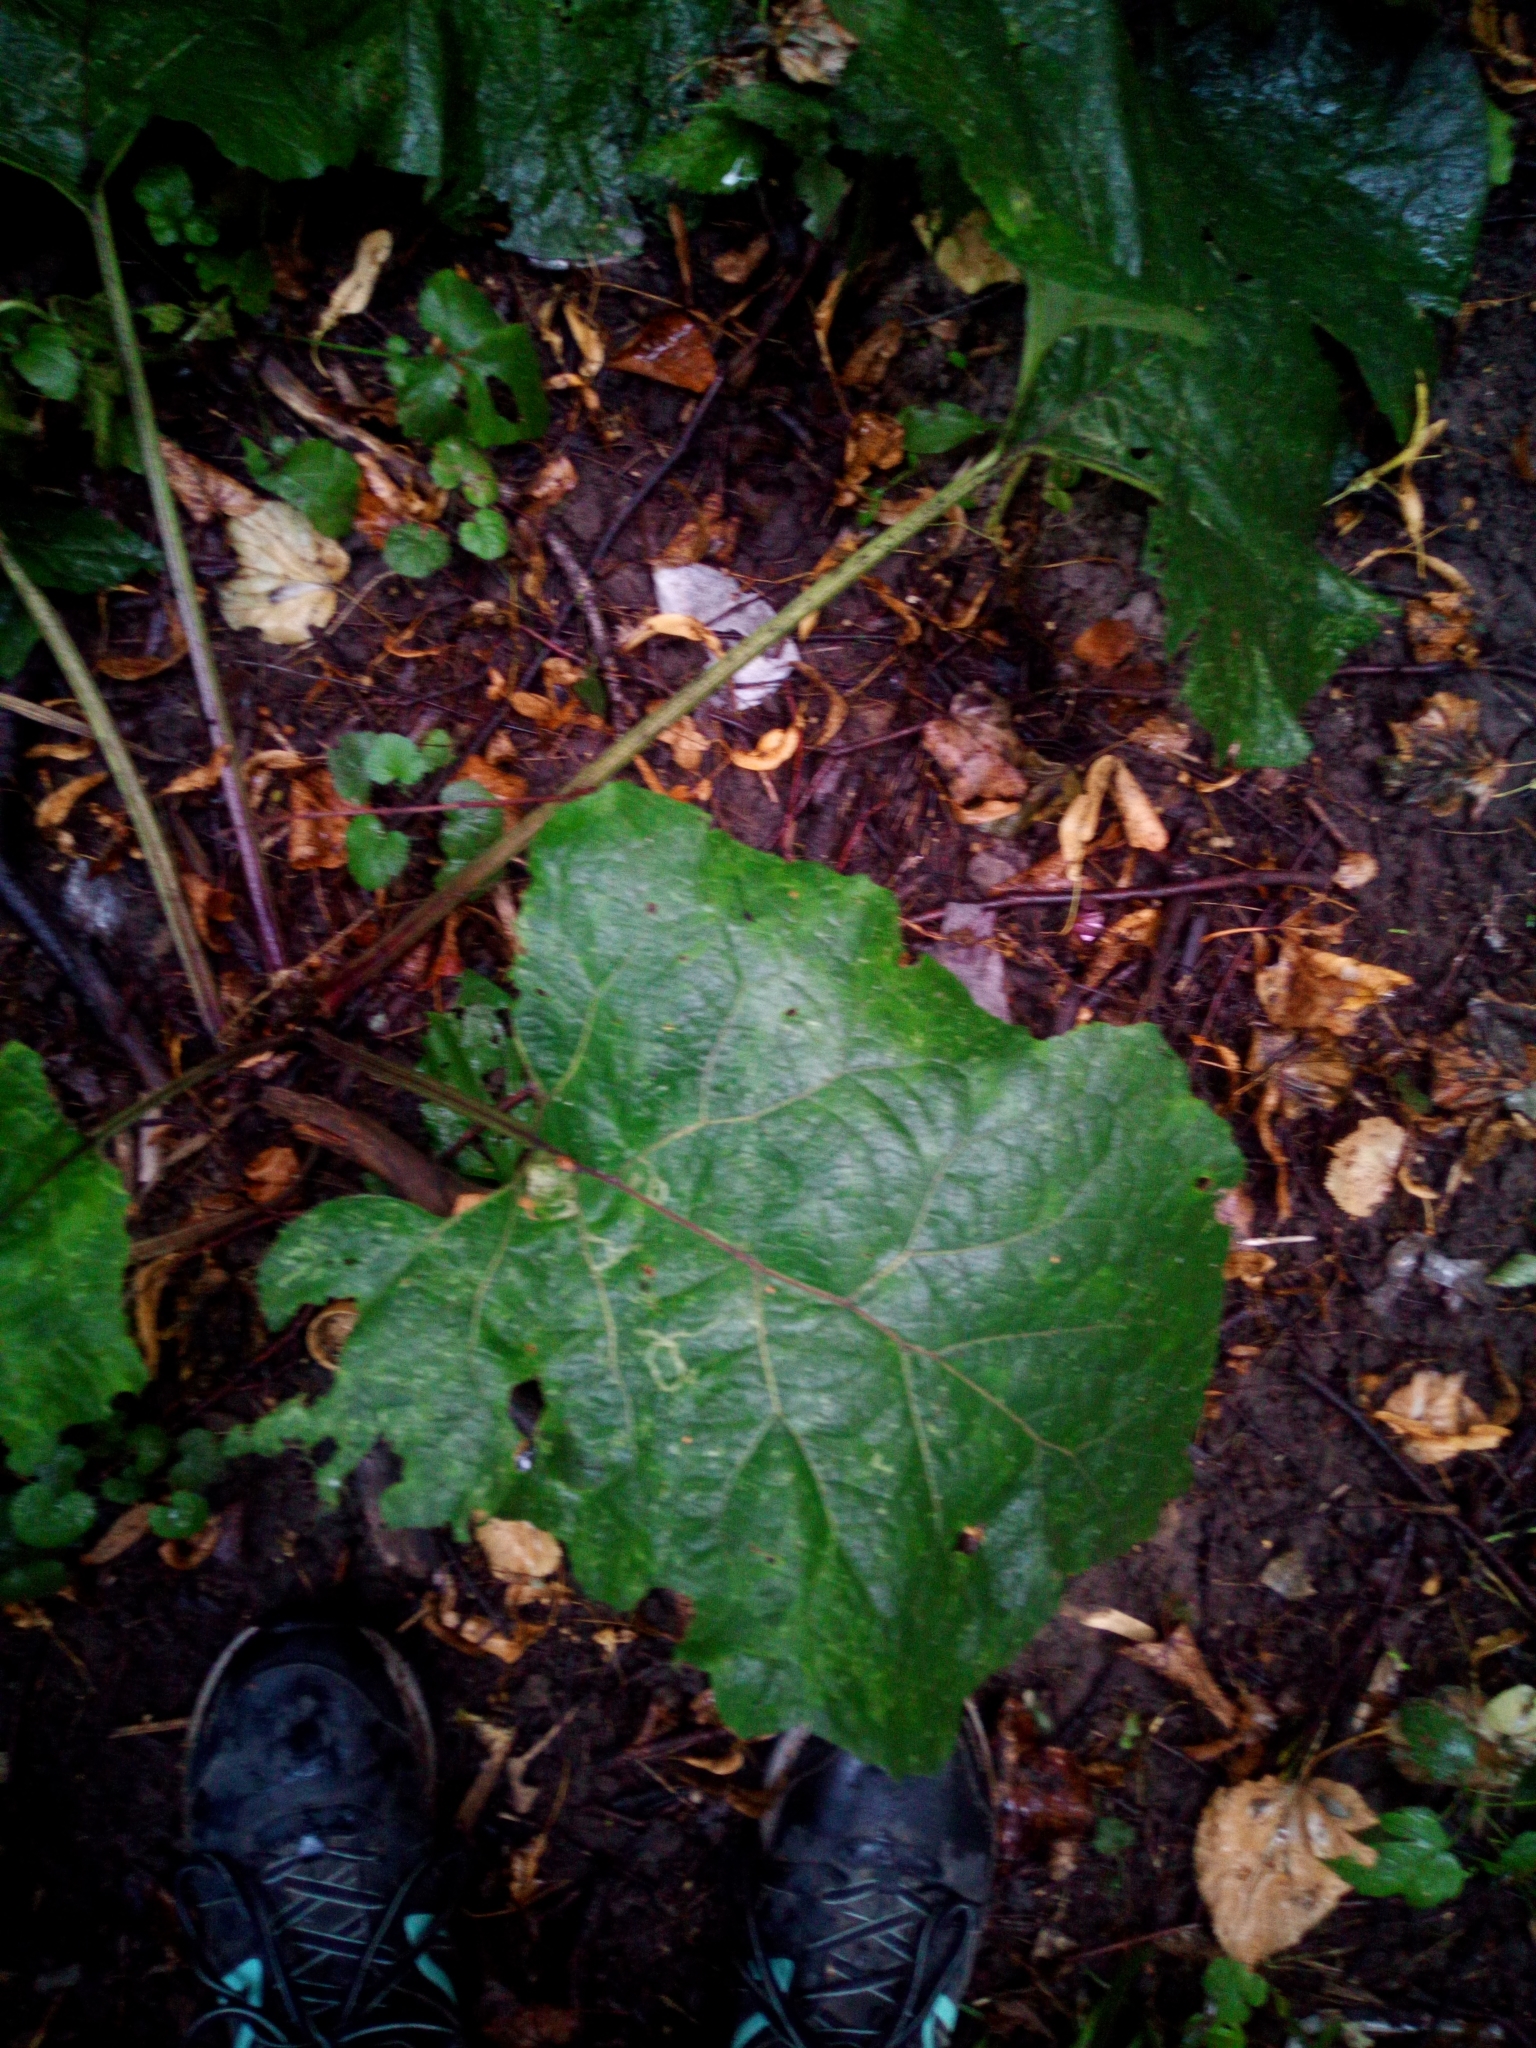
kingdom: Plantae
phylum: Tracheophyta
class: Magnoliopsida
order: Asterales
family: Asteraceae
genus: Arctium
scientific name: Arctium
